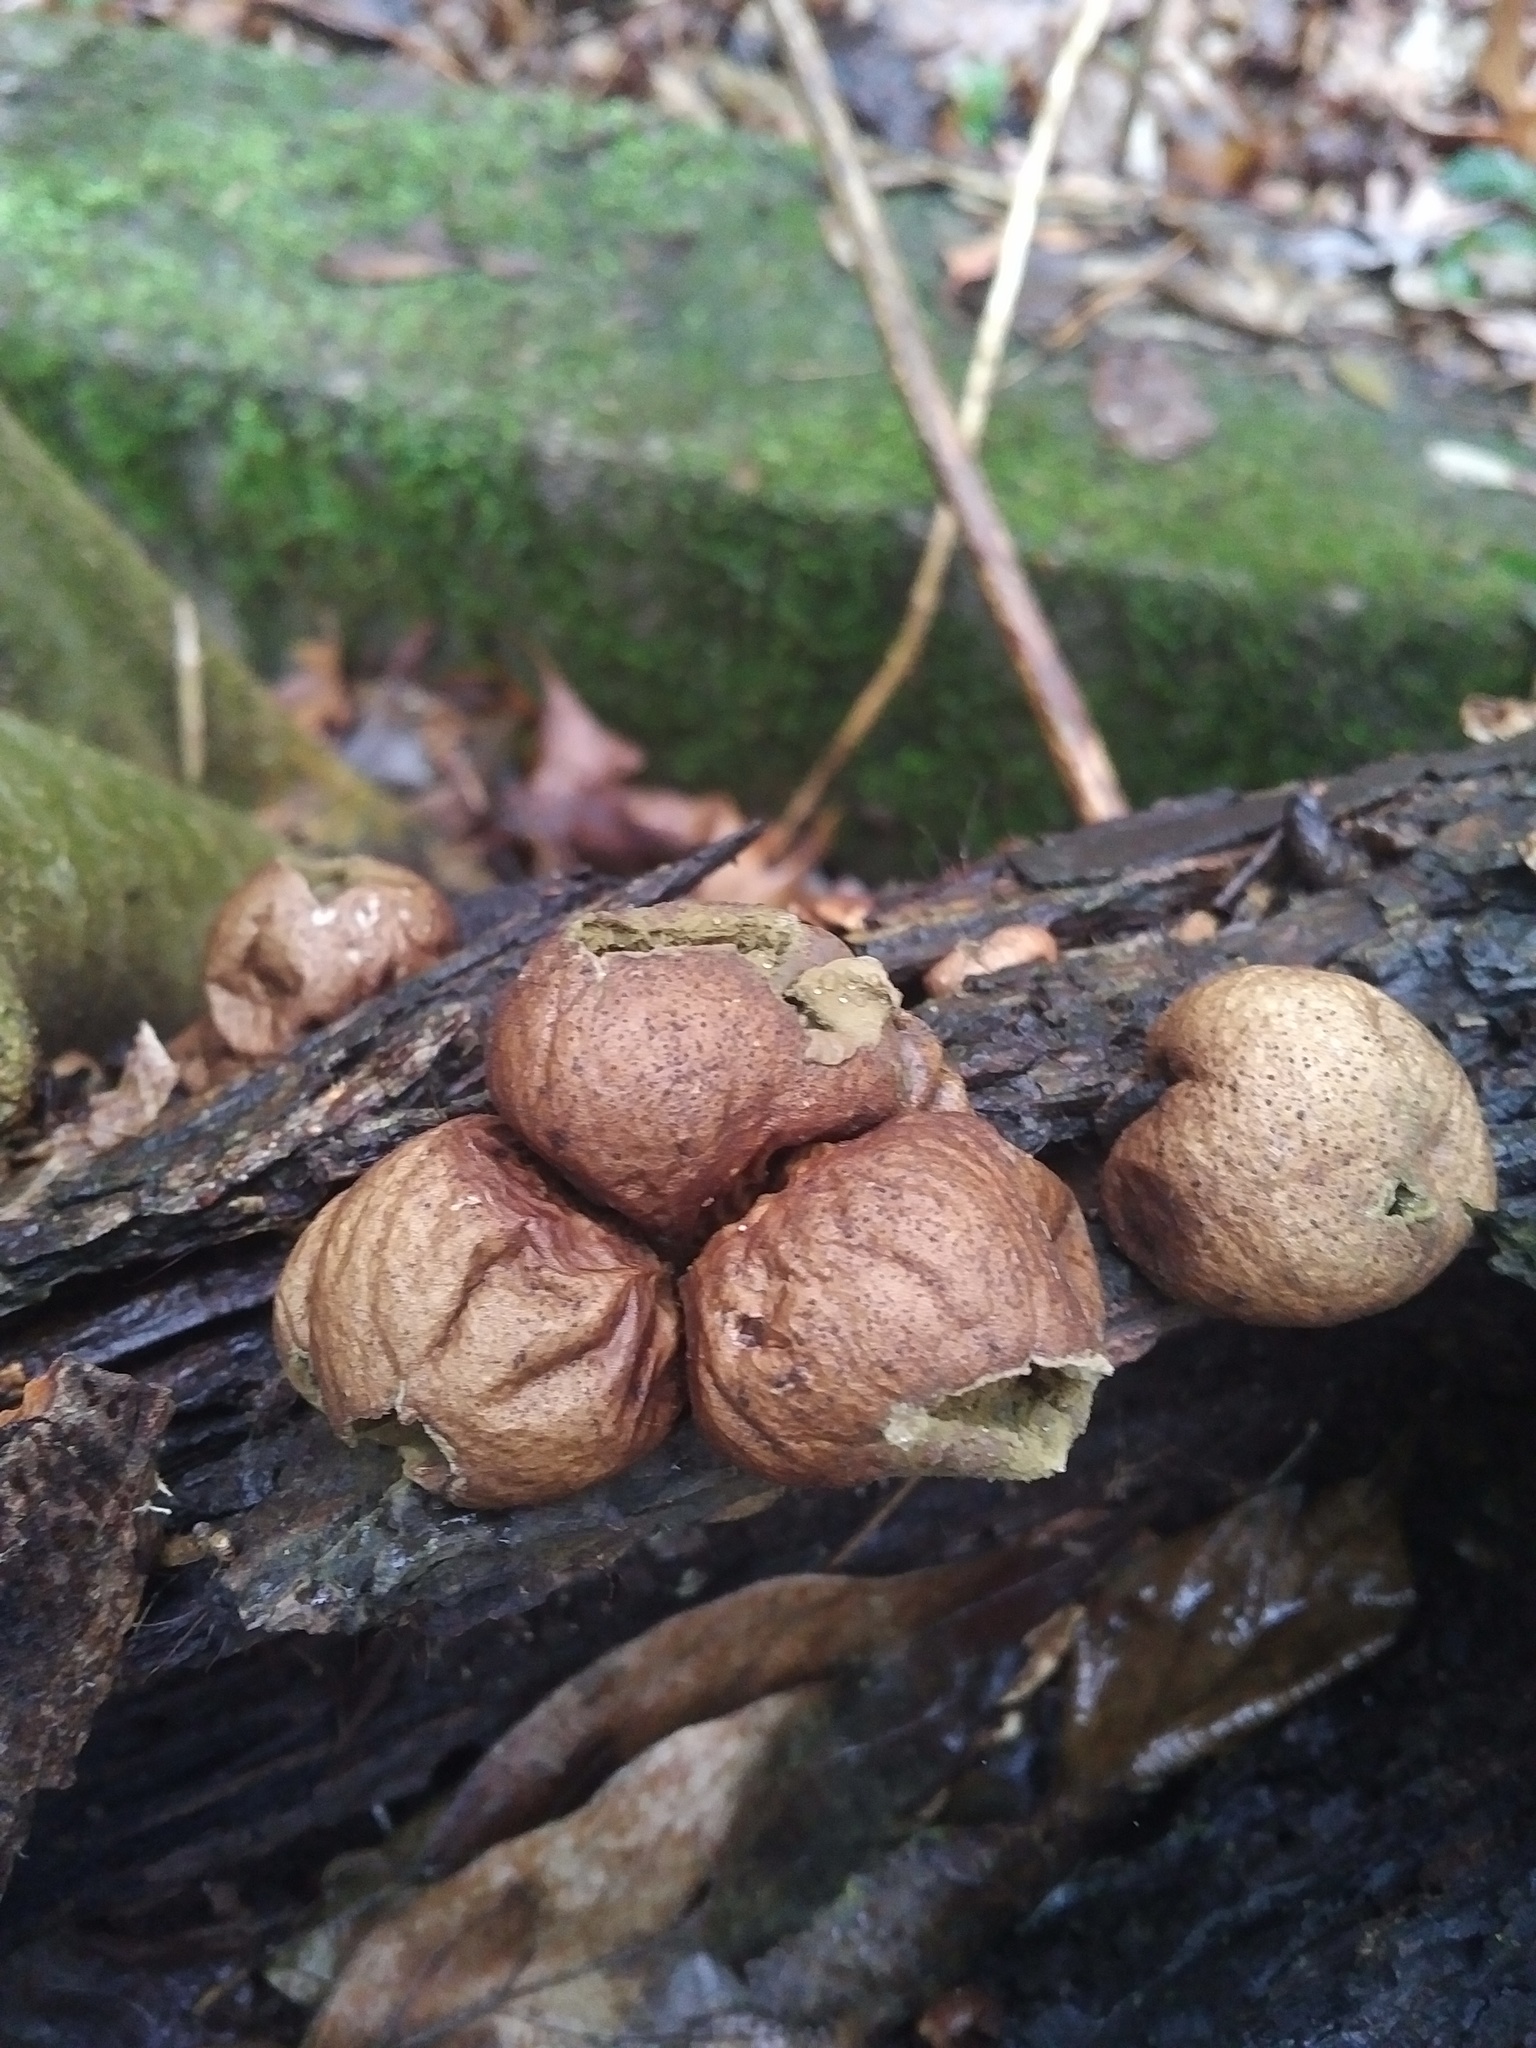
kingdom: Fungi
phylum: Basidiomycota
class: Agaricomycetes
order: Agaricales
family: Lycoperdaceae
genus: Apioperdon
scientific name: Apioperdon pyriforme
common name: Pear-shaped puffball
